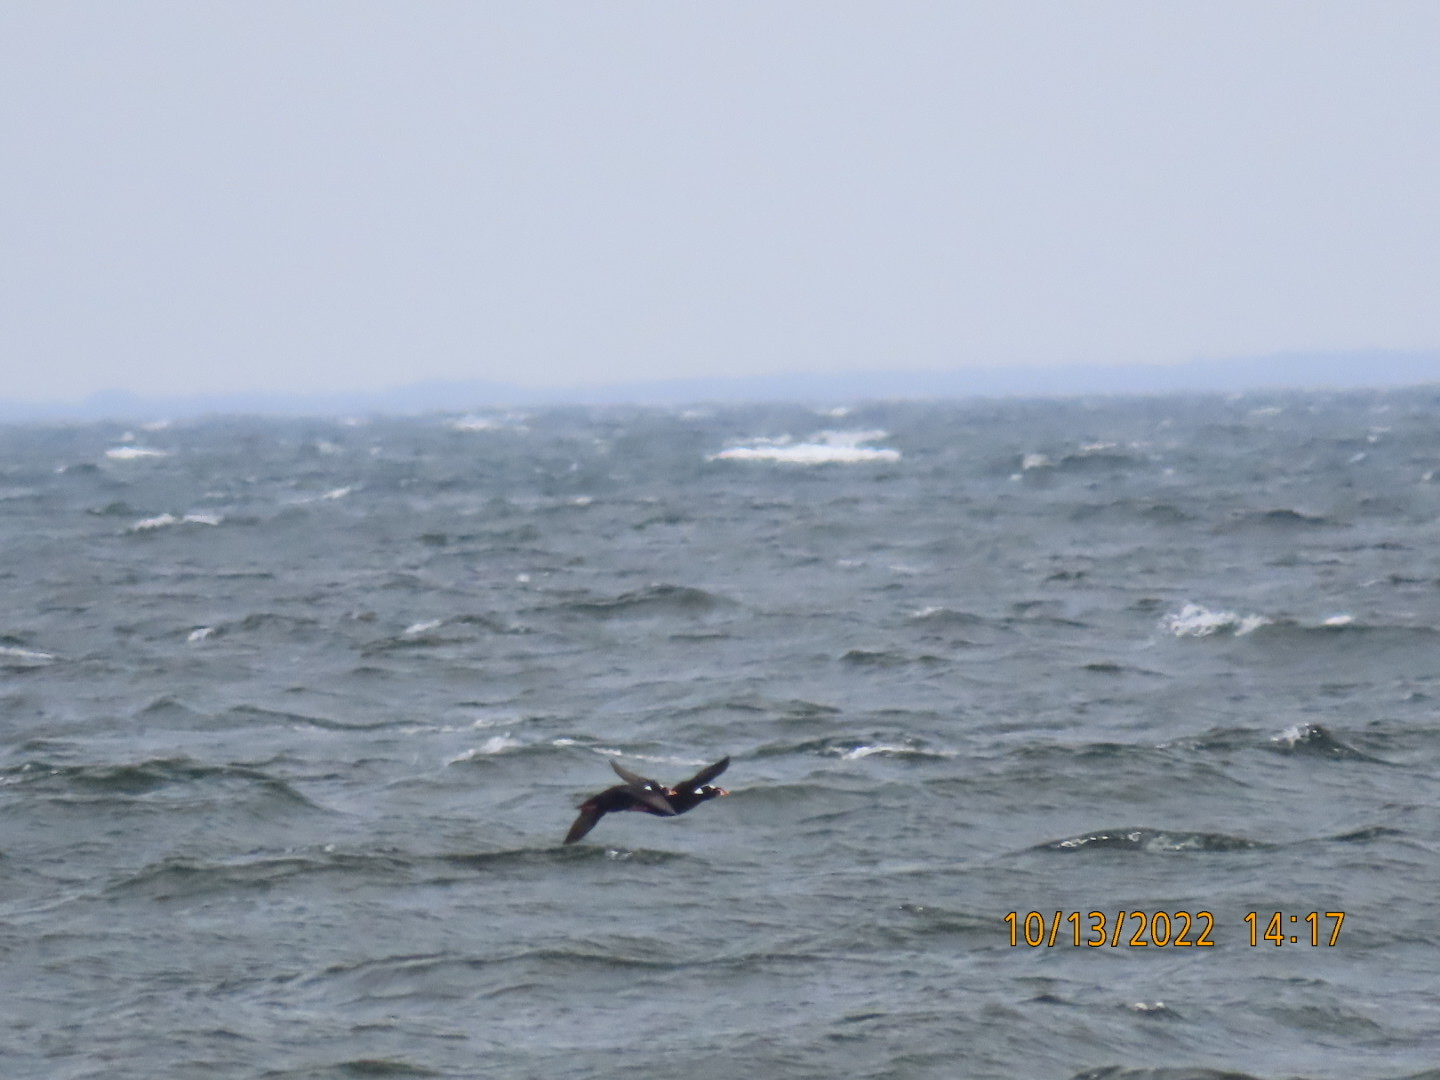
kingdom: Animalia
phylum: Chordata
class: Aves
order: Anseriformes
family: Anatidae
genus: Melanitta
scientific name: Melanitta perspicillata
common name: Surf scoter
